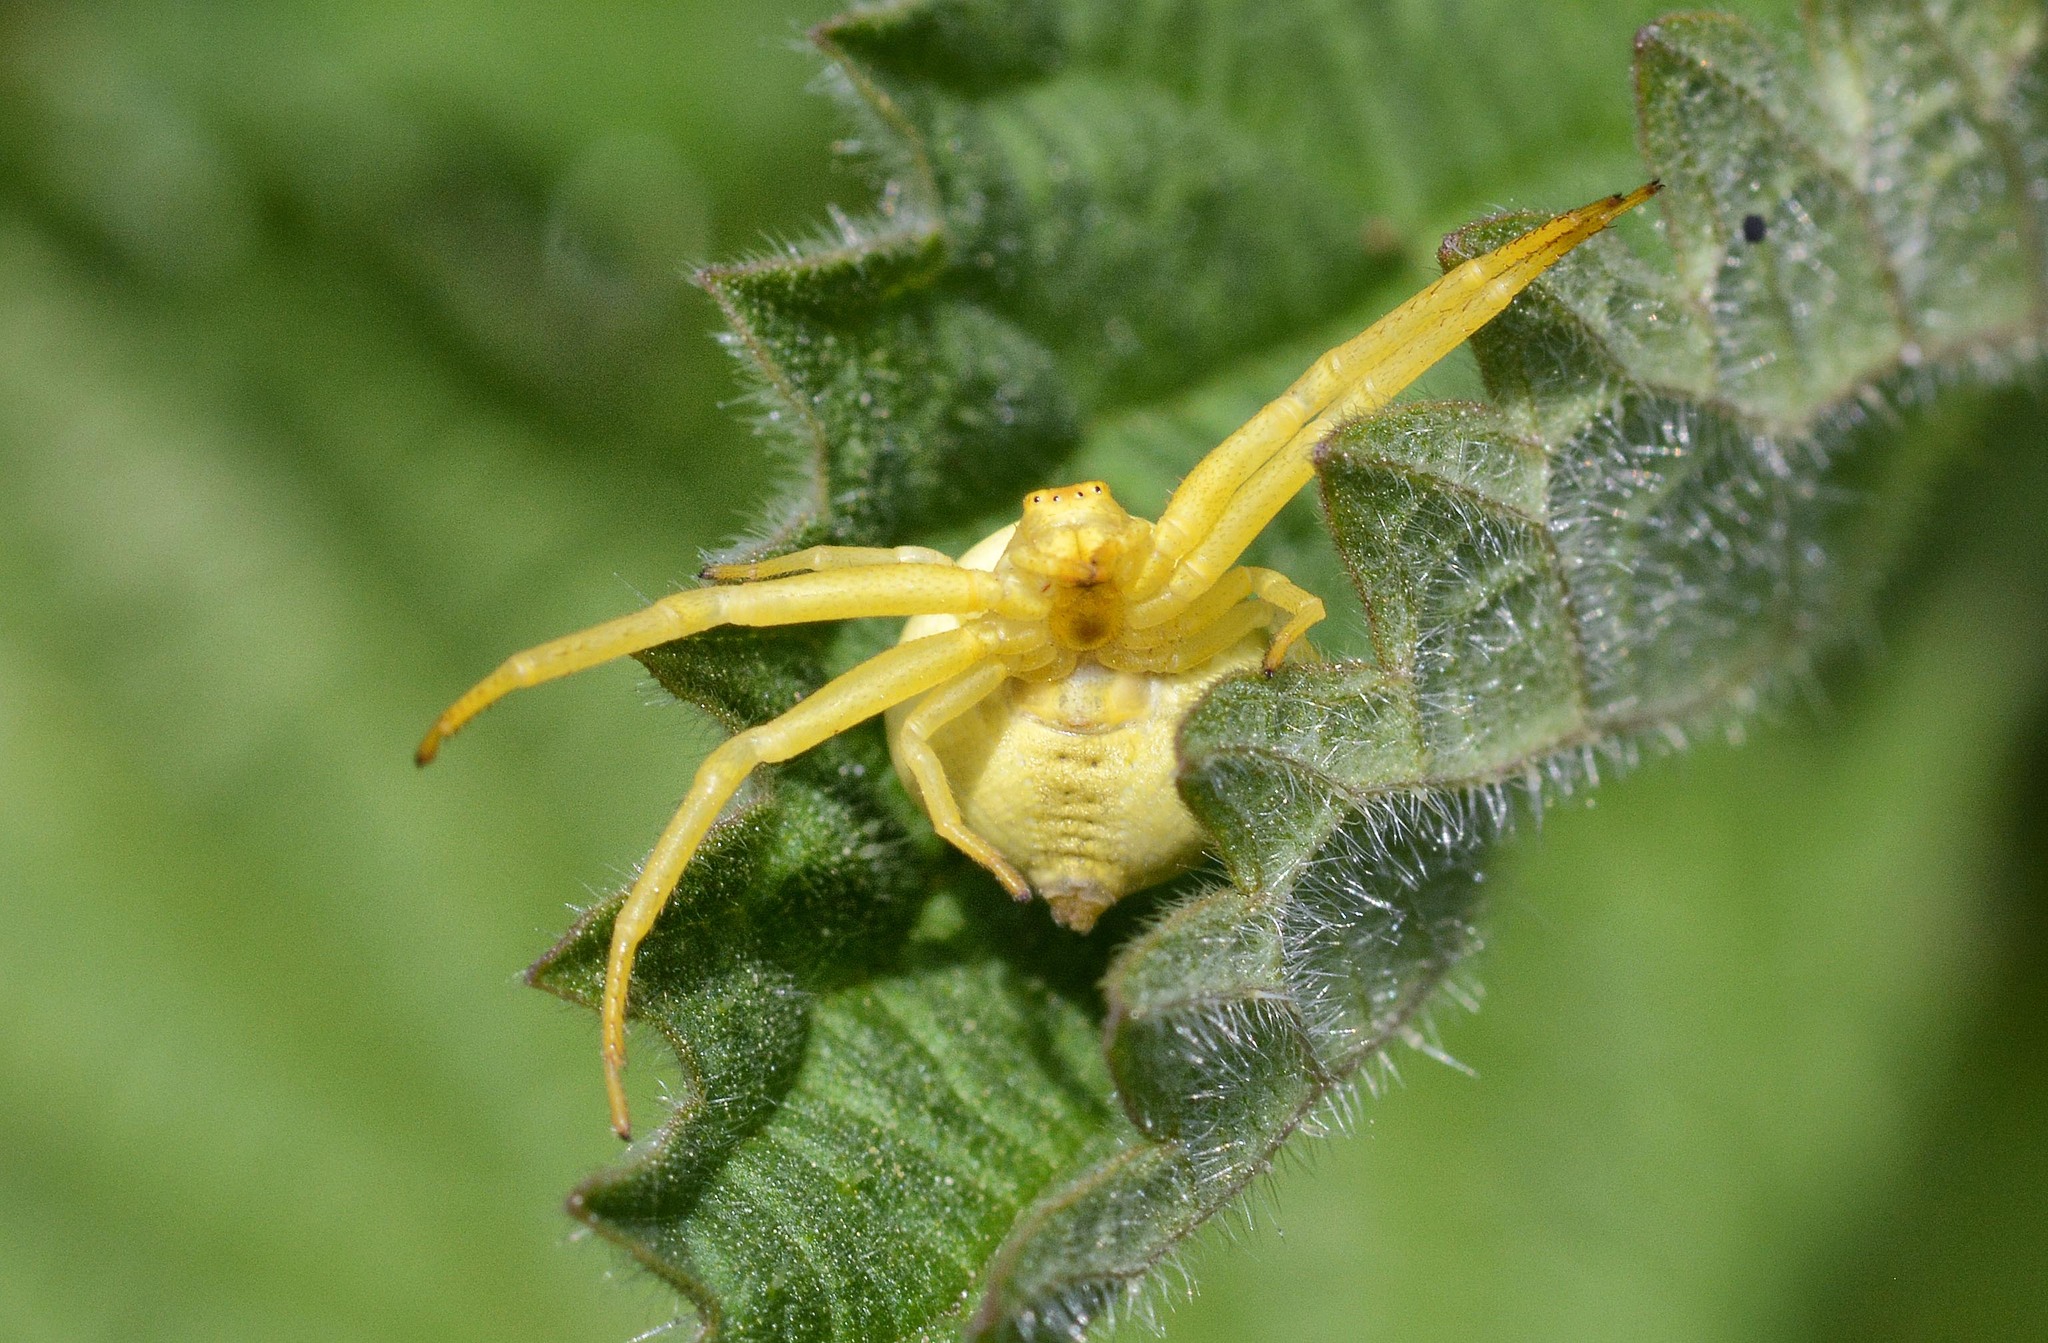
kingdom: Animalia
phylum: Arthropoda
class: Arachnida
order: Araneae
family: Thomisidae
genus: Misumena
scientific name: Misumena vatia
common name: Goldenrod crab spider
